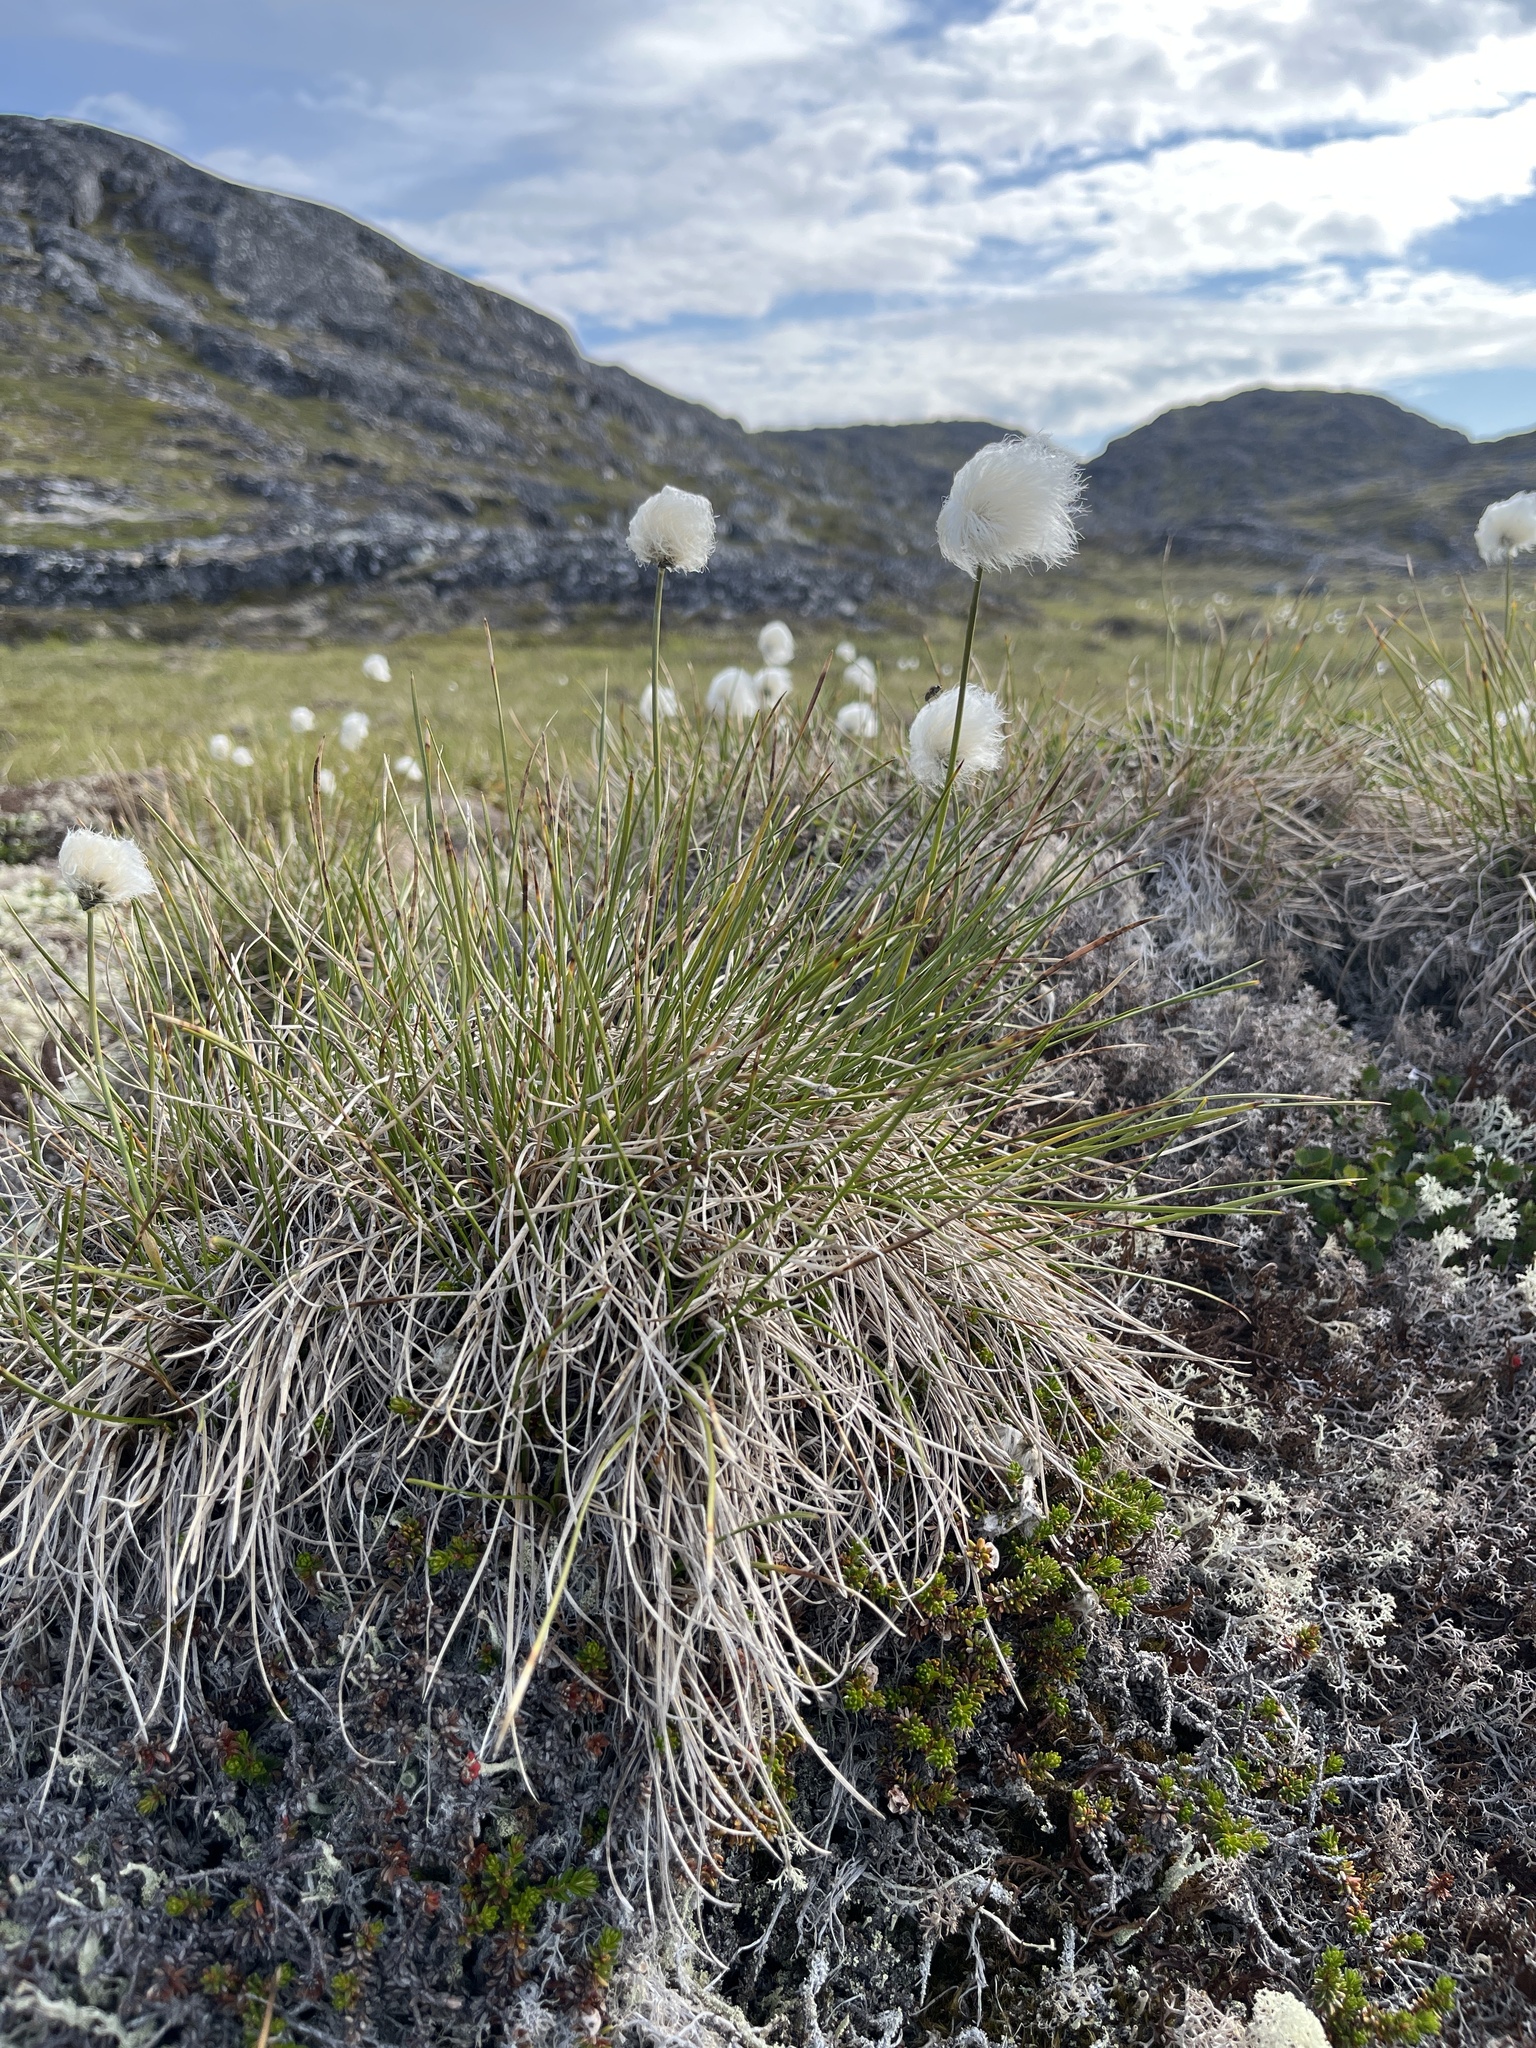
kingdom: Plantae
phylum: Tracheophyta
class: Liliopsida
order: Poales
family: Cyperaceae
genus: Eriophorum
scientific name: Eriophorum vaginatum
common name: Hare's-tail cottongrass
